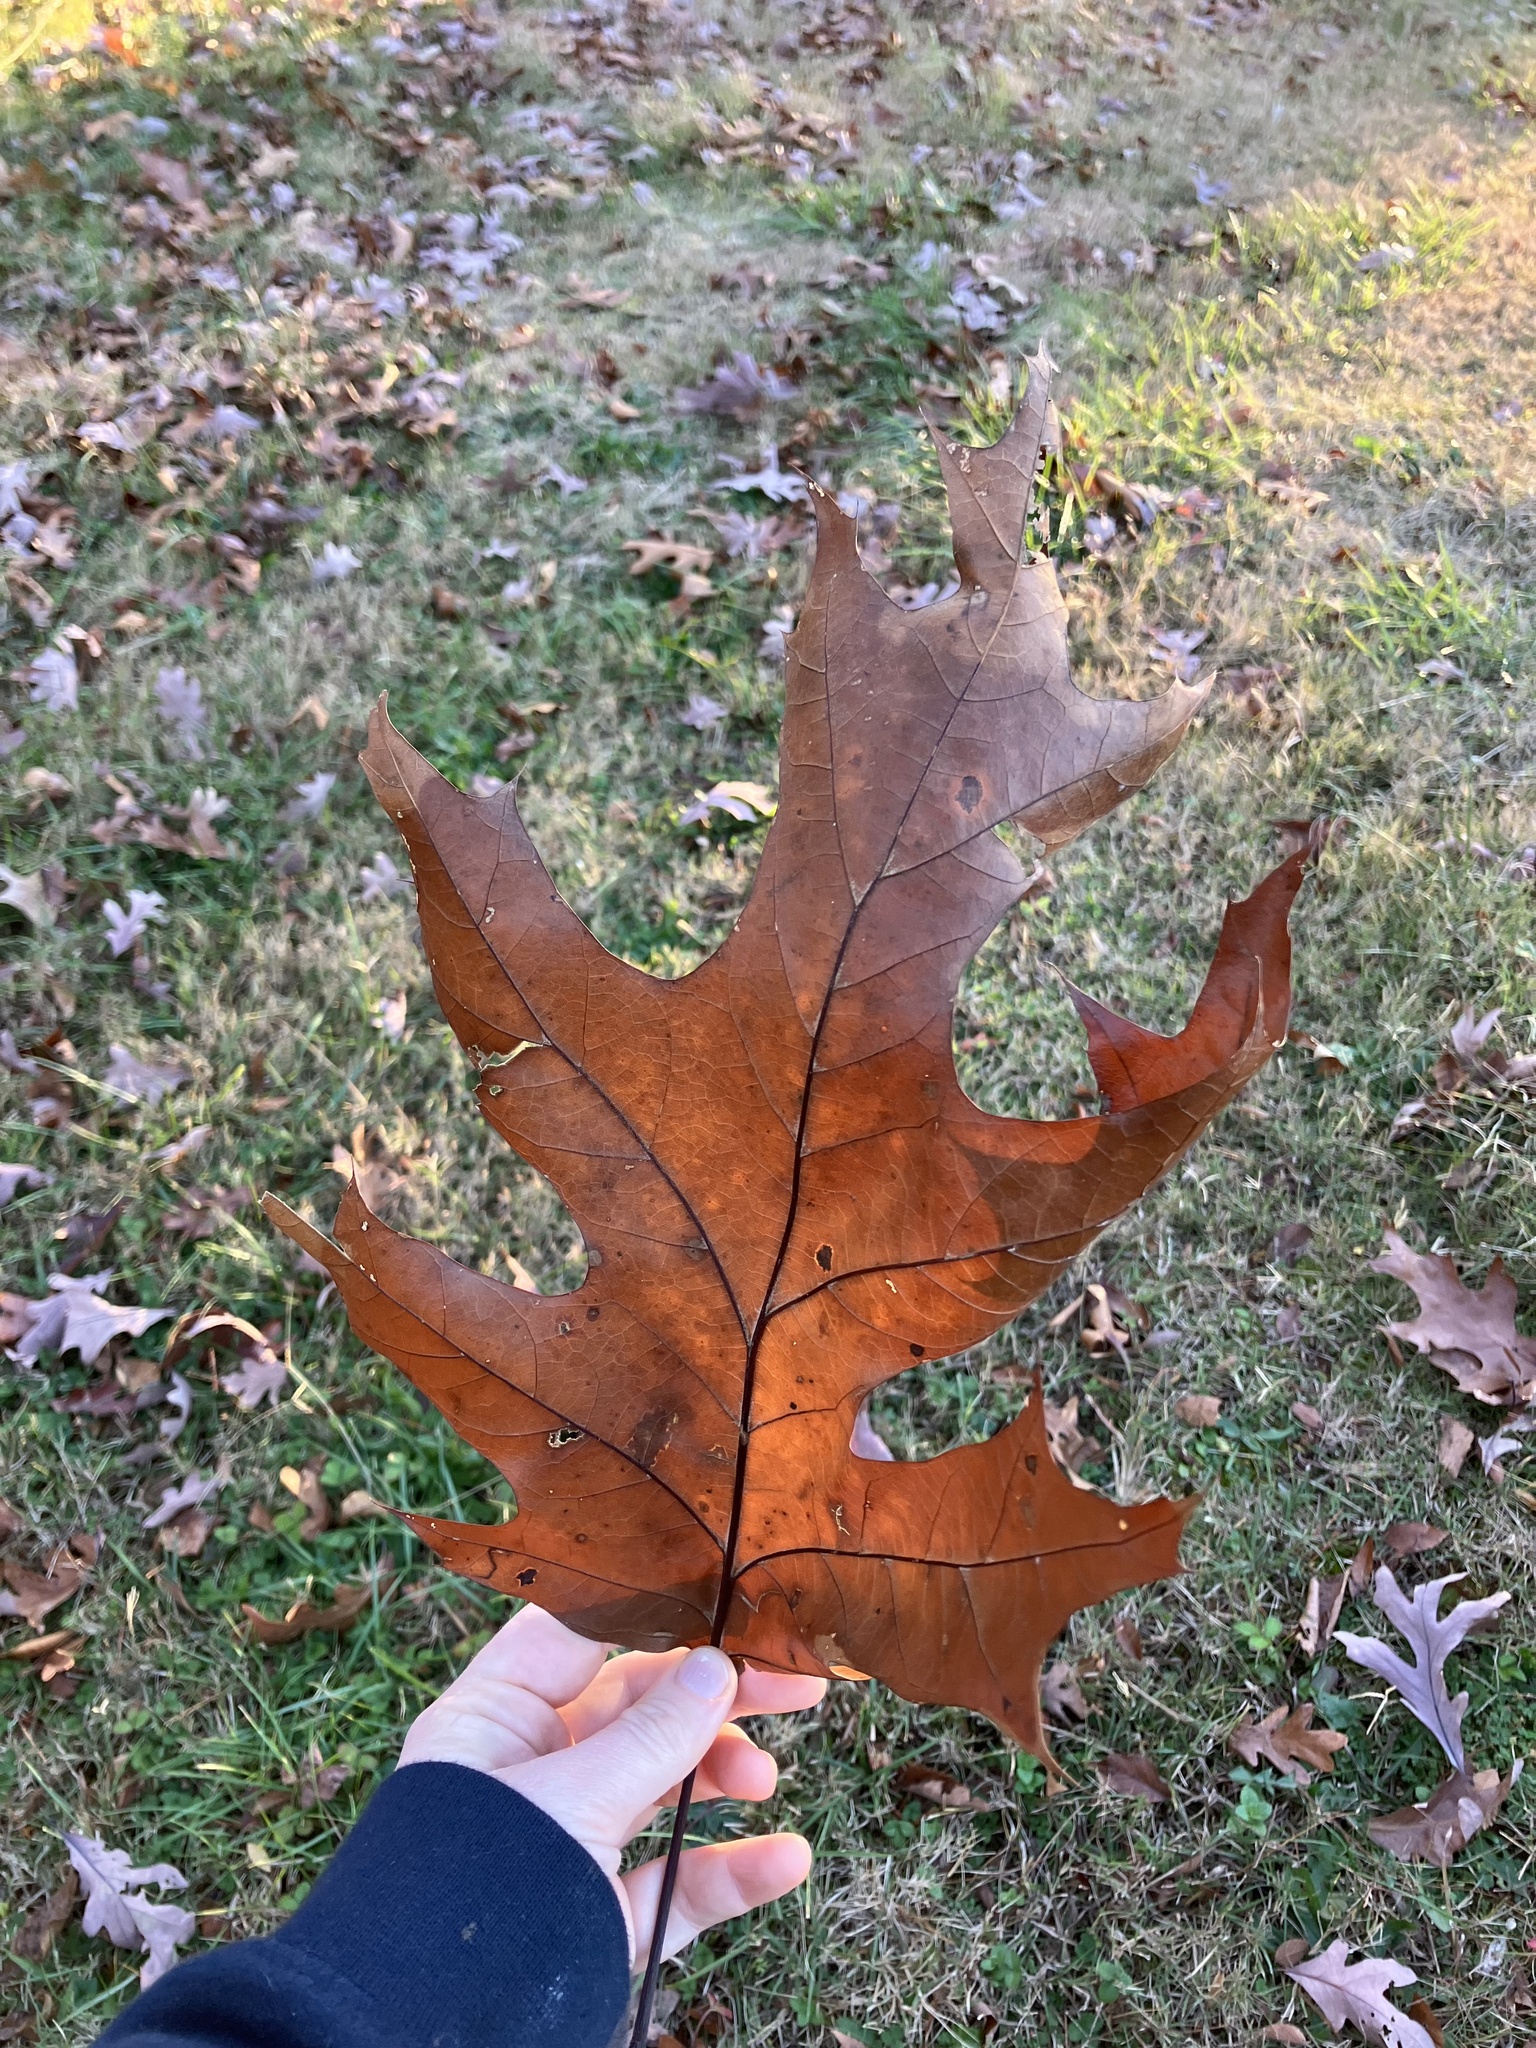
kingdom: Plantae
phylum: Tracheophyta
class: Magnoliopsida
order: Fagales
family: Fagaceae
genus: Quercus
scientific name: Quercus rubra
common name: Red oak
